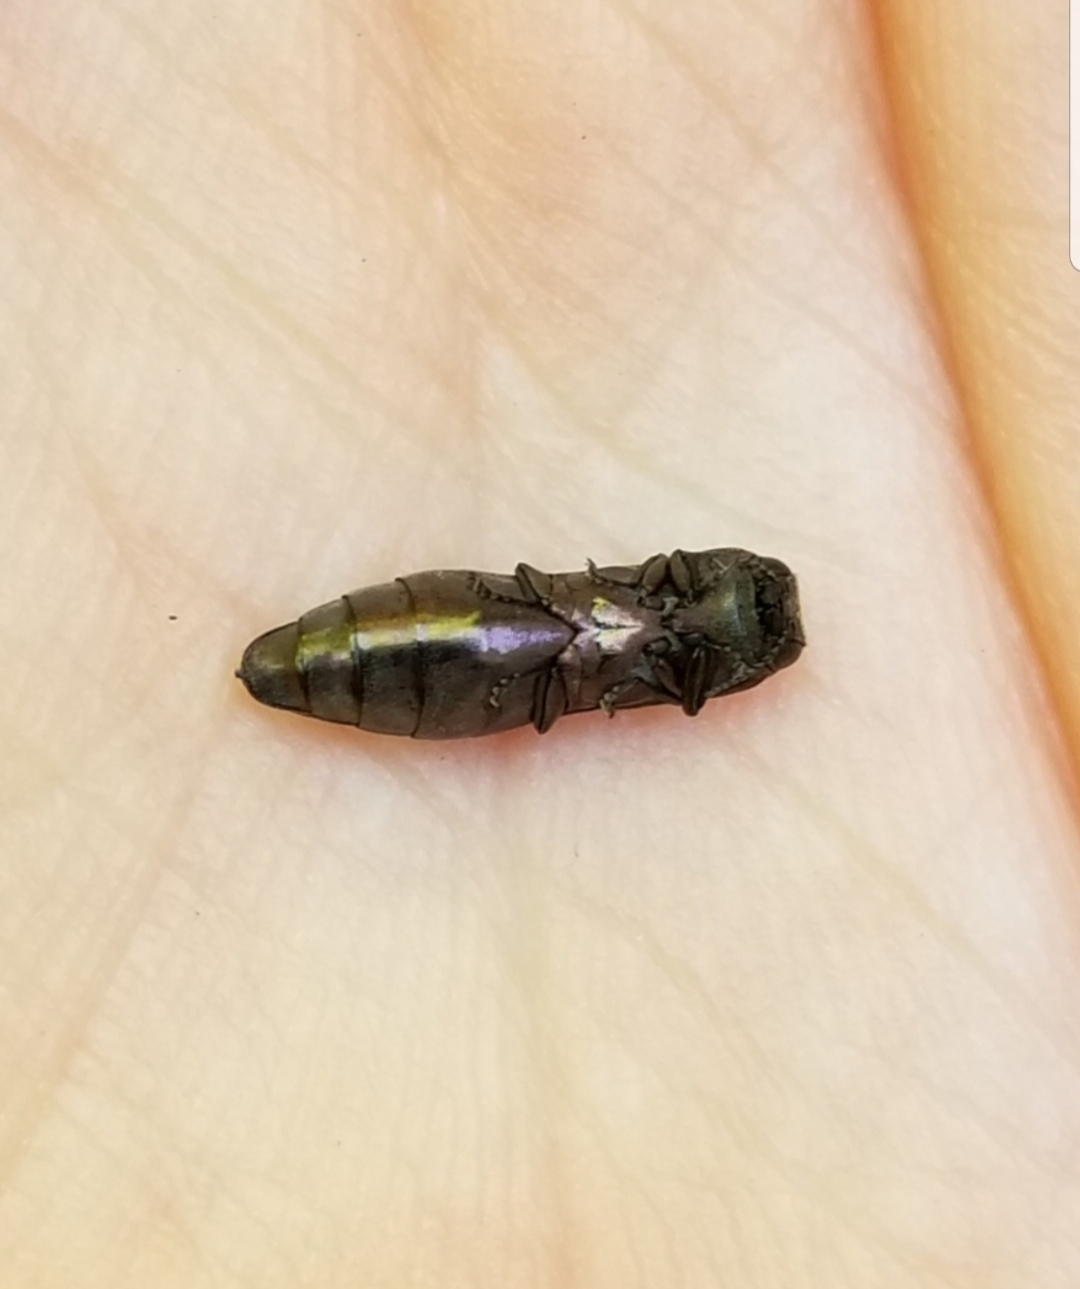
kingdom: Animalia
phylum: Arthropoda
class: Insecta
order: Coleoptera
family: Buprestidae
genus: Agrilus
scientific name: Agrilus vittaticollis
